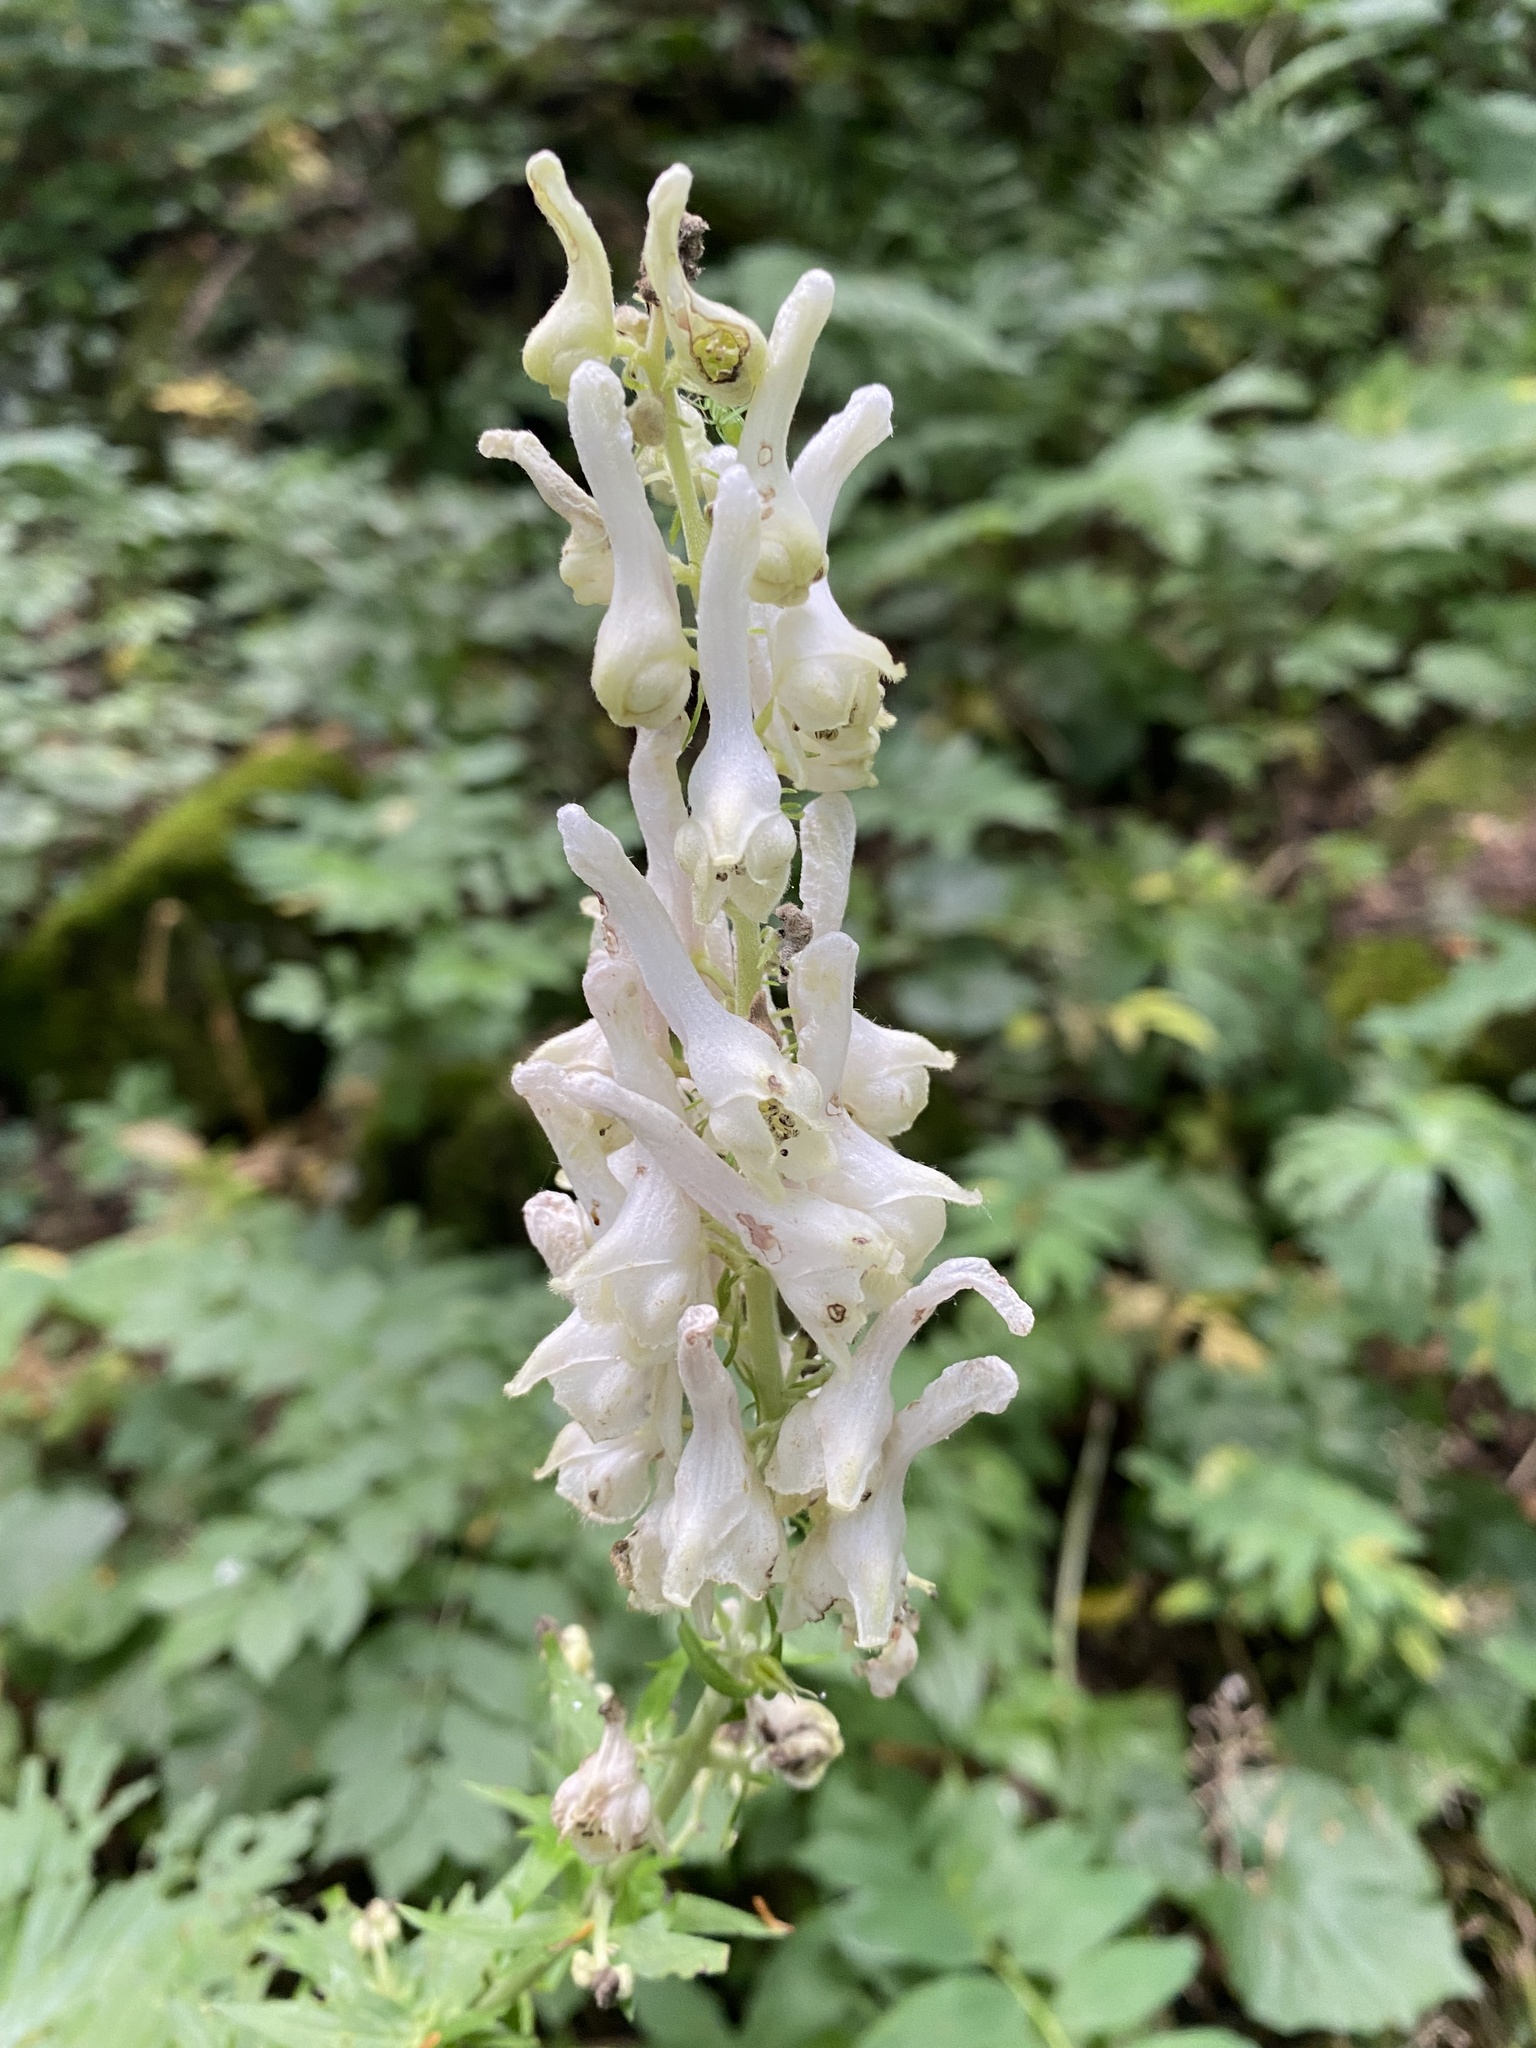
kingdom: Plantae
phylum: Tracheophyta
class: Magnoliopsida
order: Ranunculales
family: Ranunculaceae
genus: Aconitum
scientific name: Aconitum orientale
